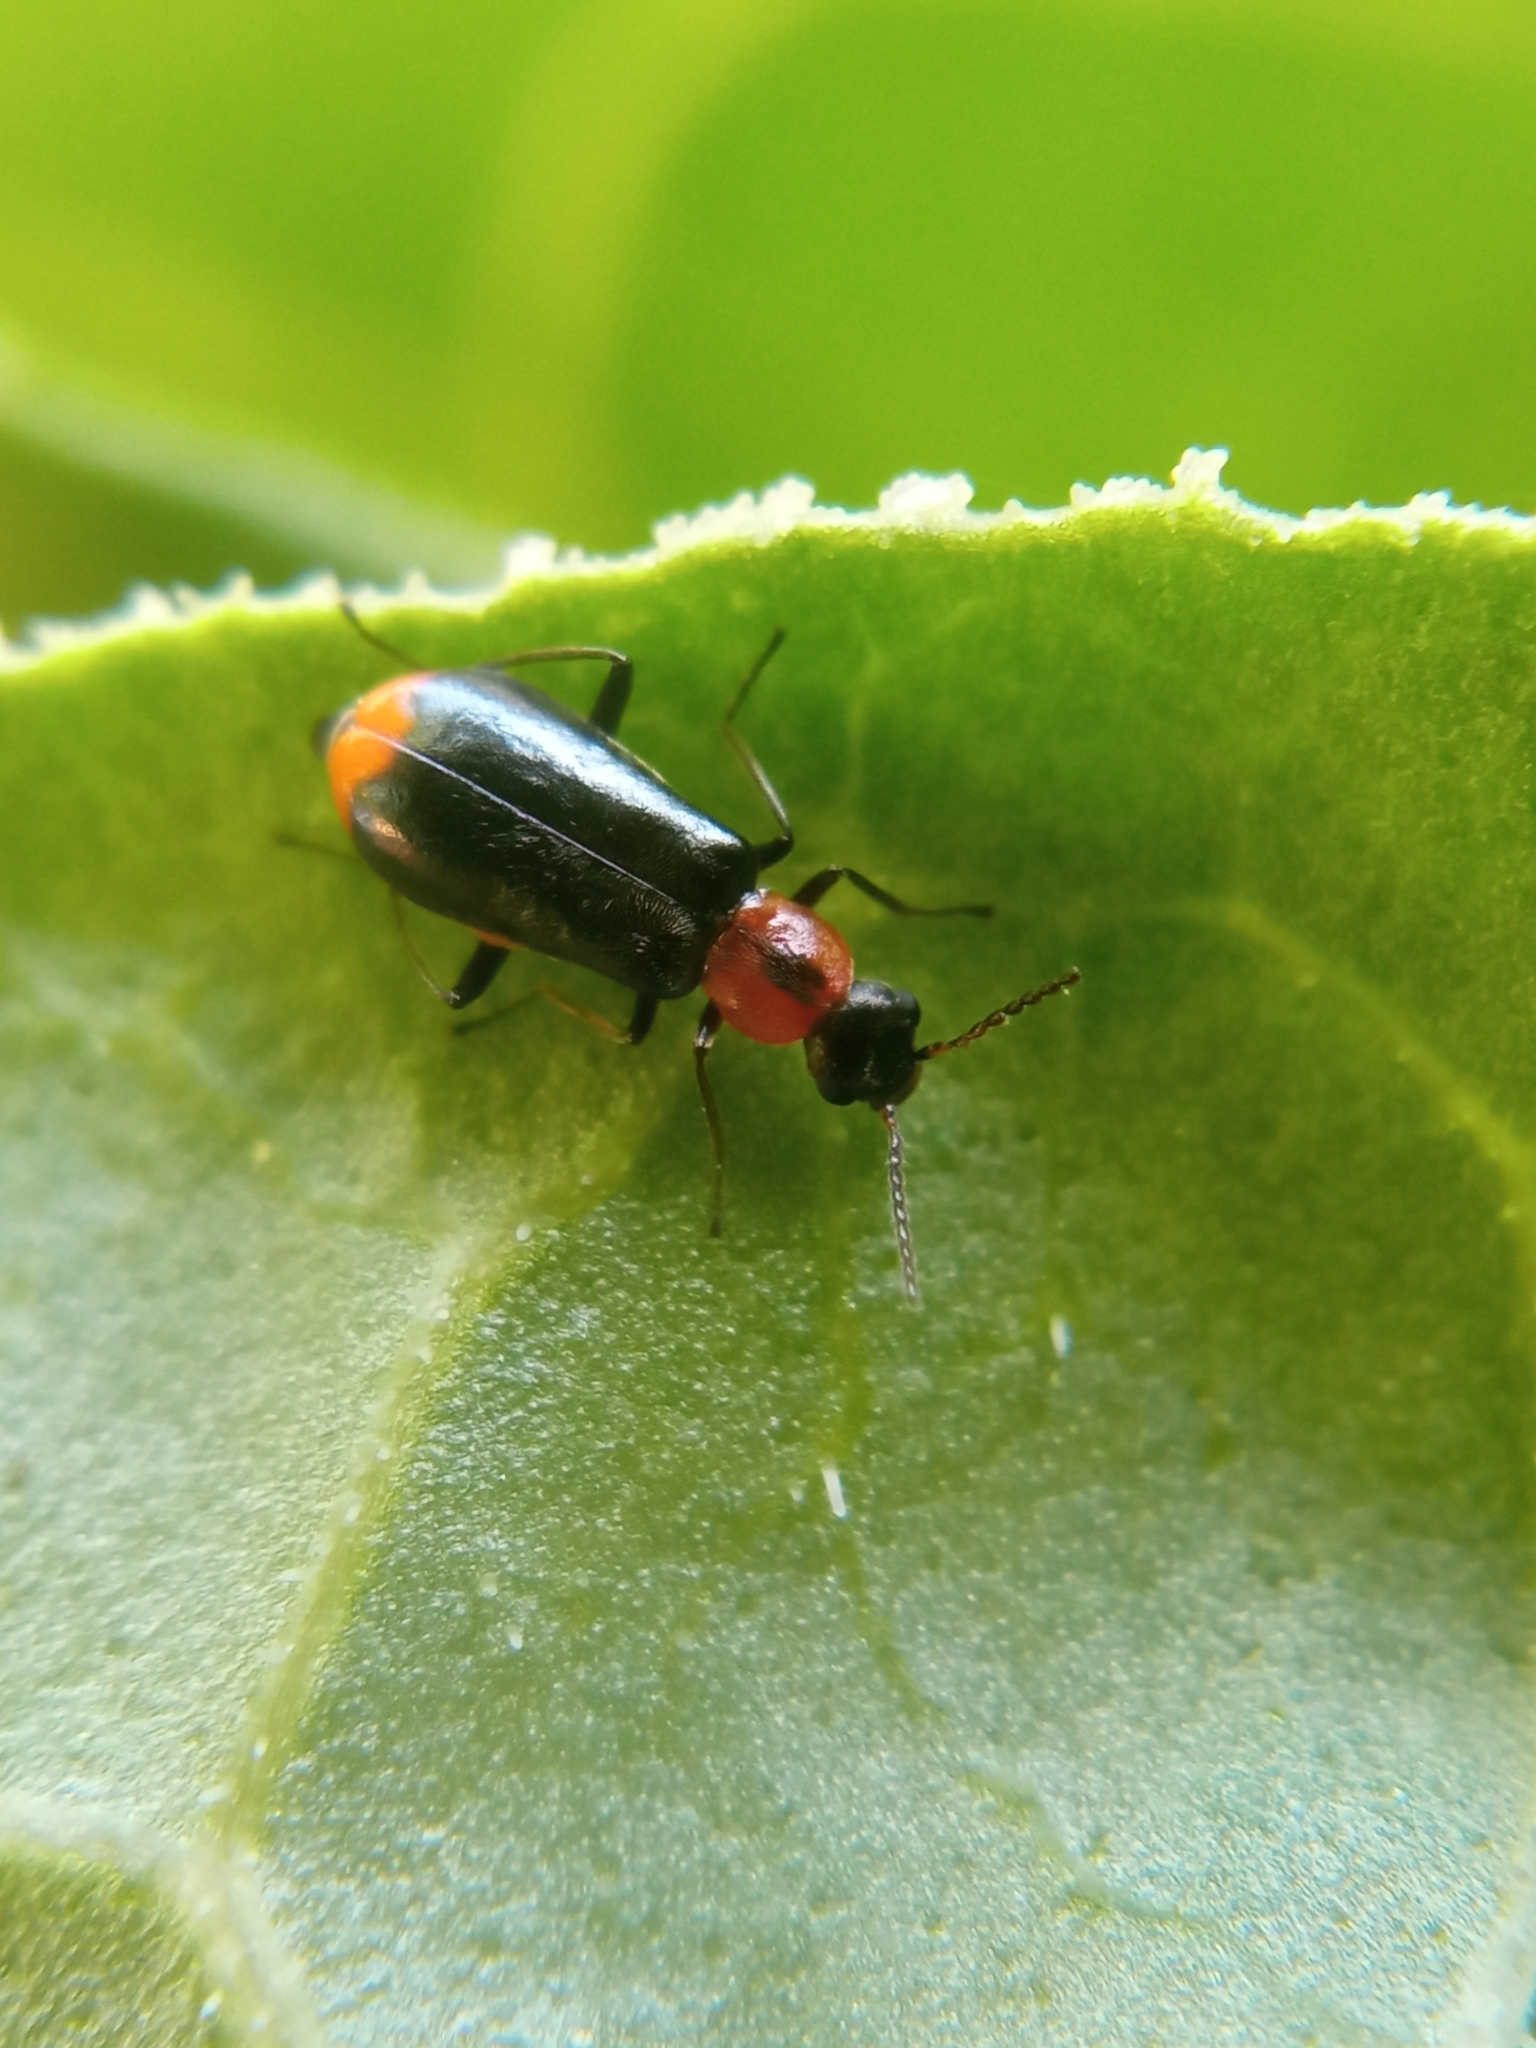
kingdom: Animalia
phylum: Arthropoda
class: Insecta
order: Coleoptera
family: Malachiidae
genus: Attalus
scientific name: Attalus minimus
